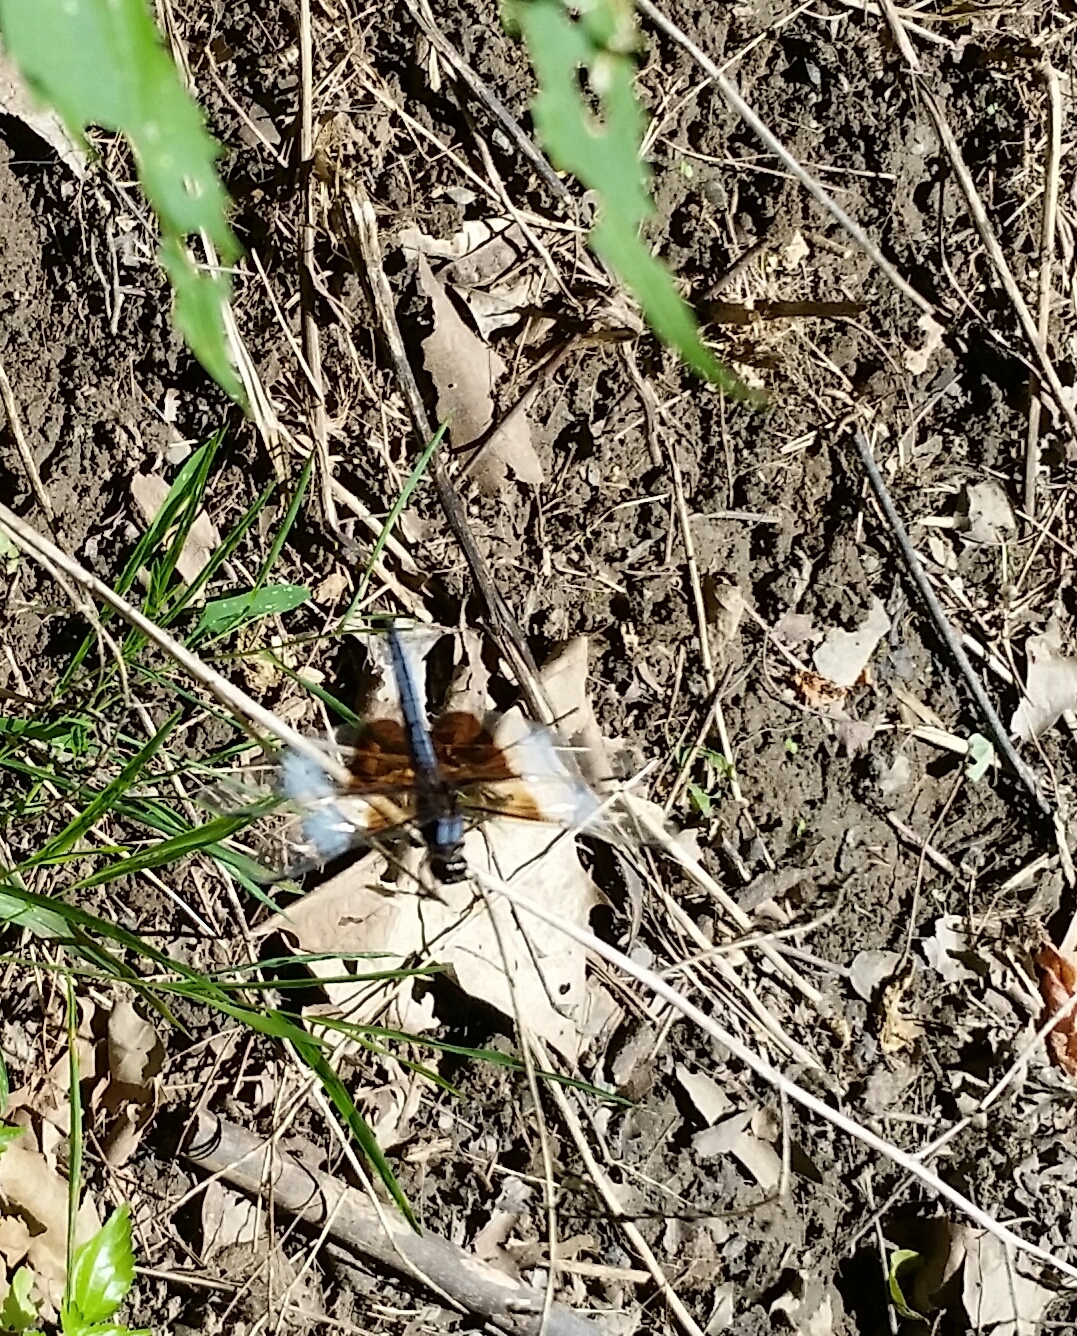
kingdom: Animalia
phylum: Arthropoda
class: Insecta
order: Odonata
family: Libellulidae
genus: Libellula
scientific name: Libellula luctuosa
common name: Widow skimmer
